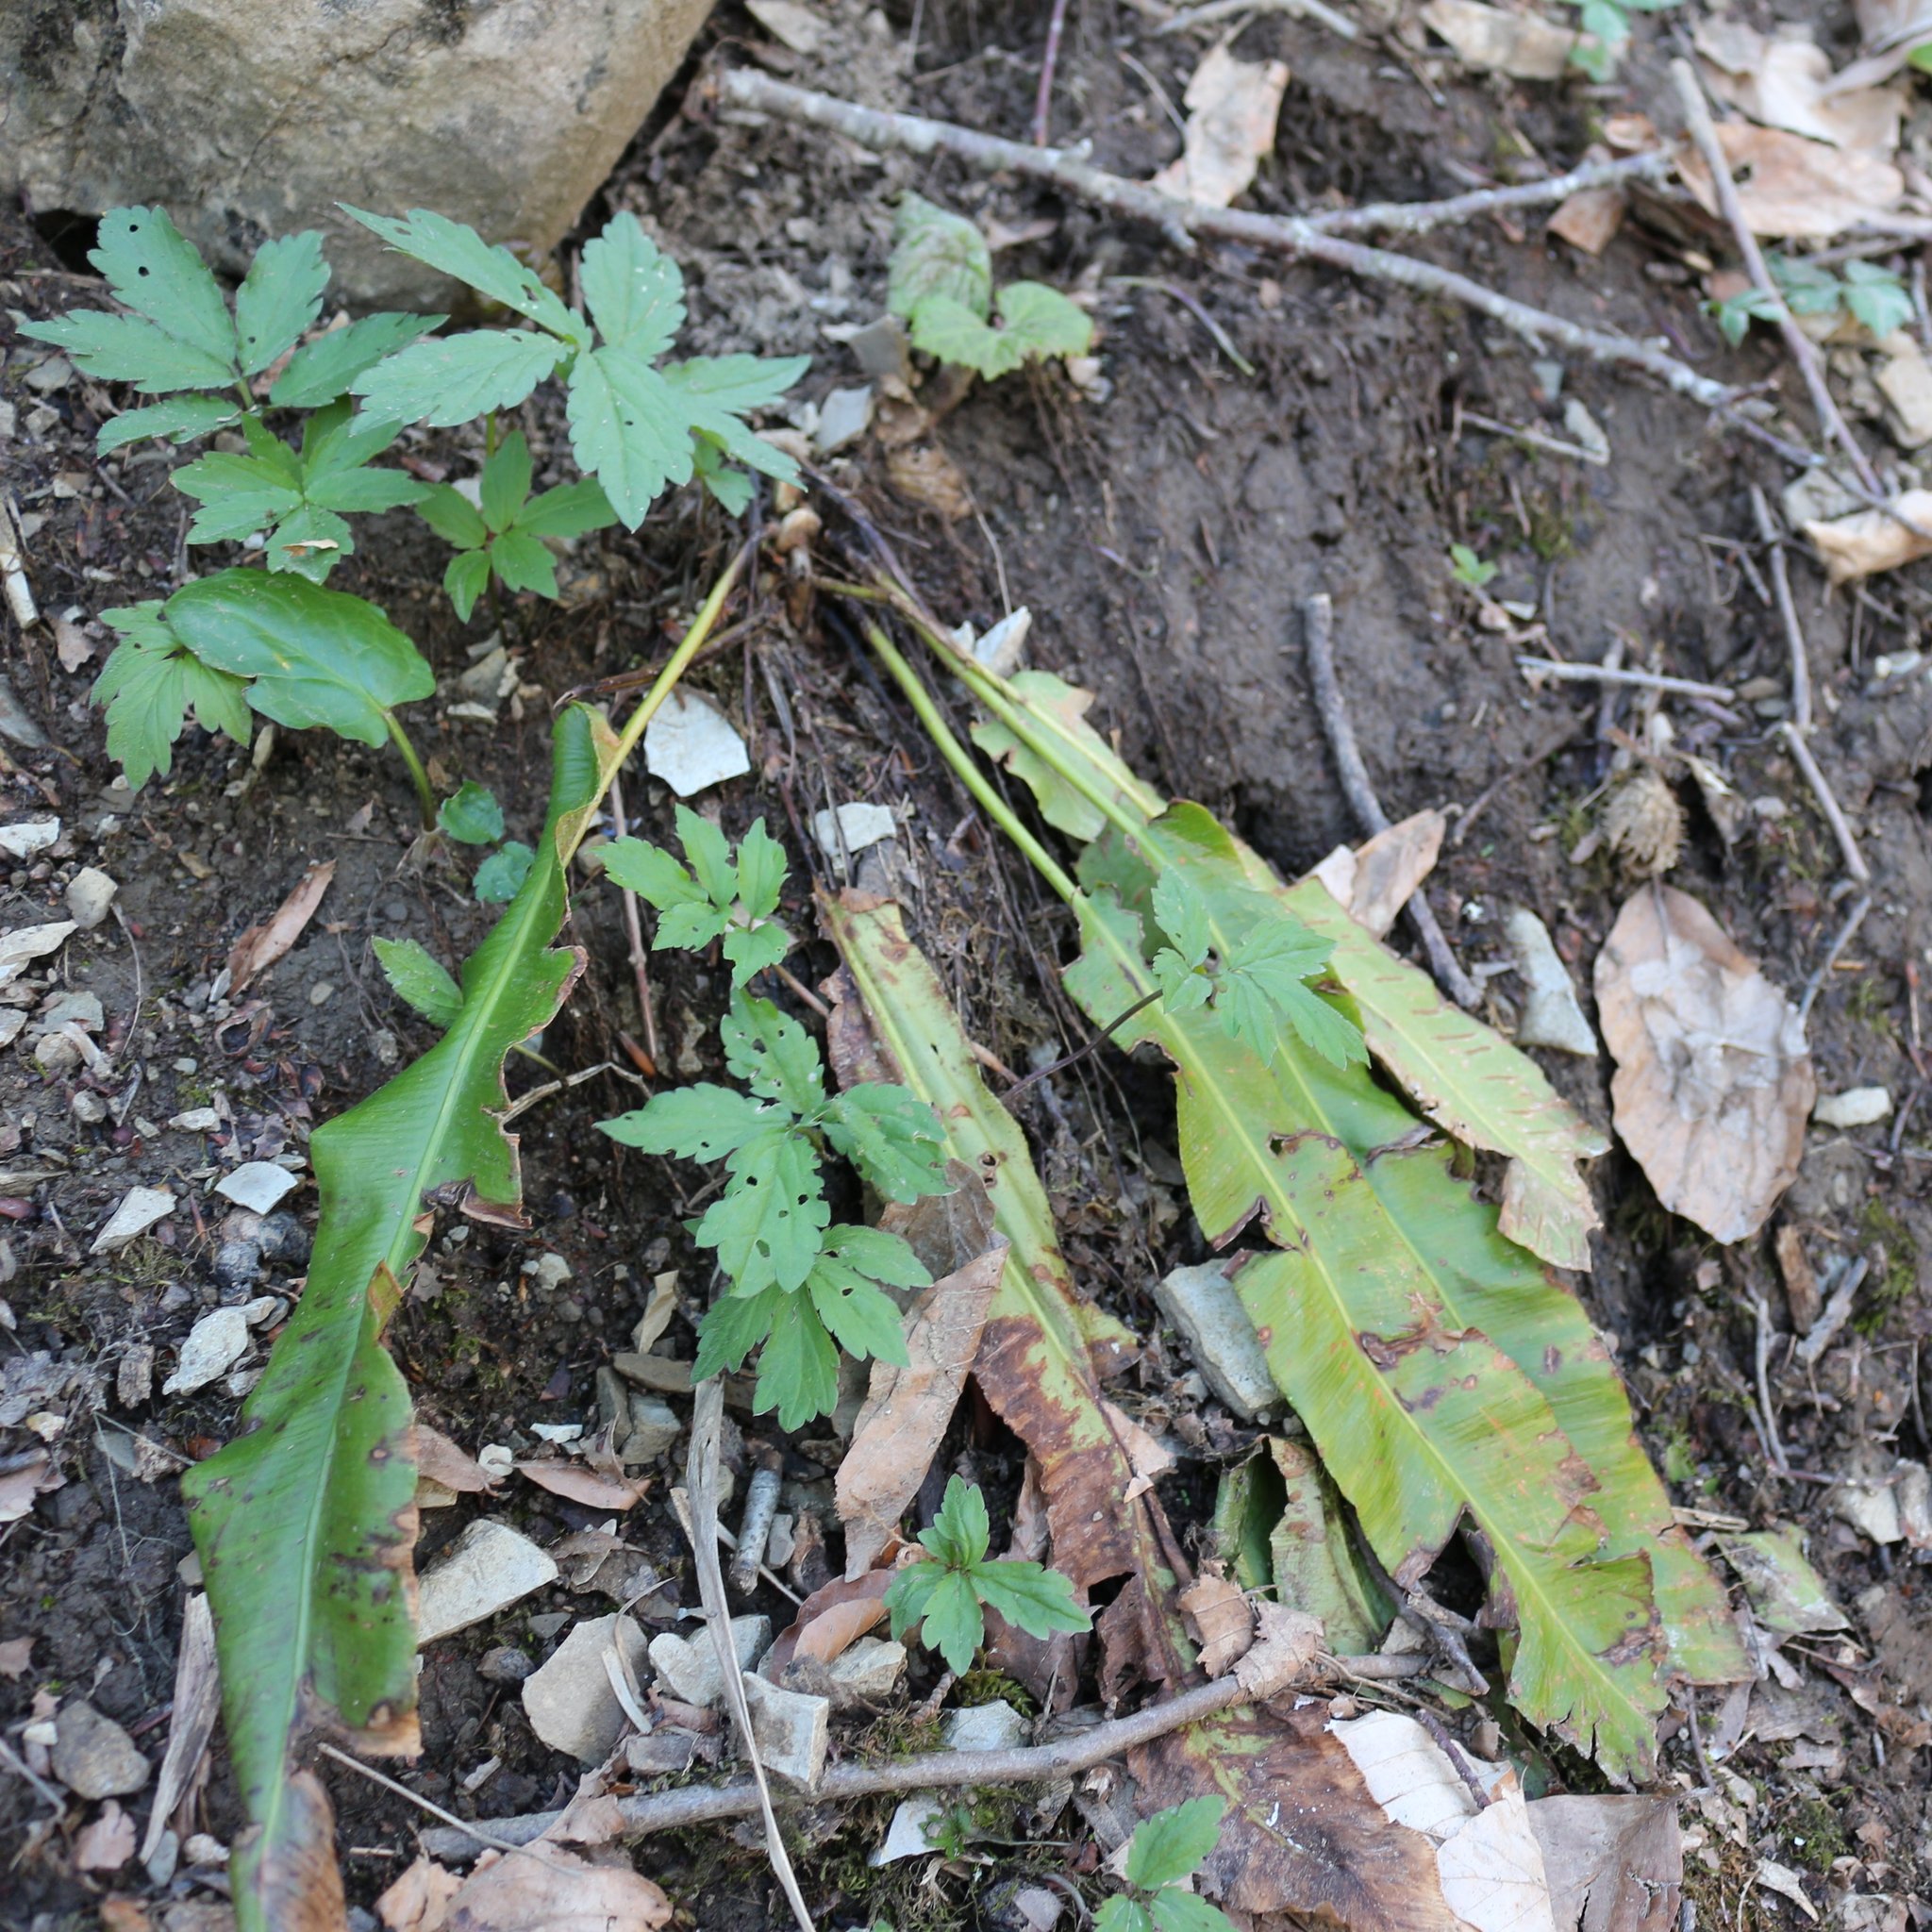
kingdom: Plantae
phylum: Tracheophyta
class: Polypodiopsida
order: Polypodiales
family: Aspleniaceae
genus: Asplenium
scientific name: Asplenium scolopendrium
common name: Hart's-tongue fern
